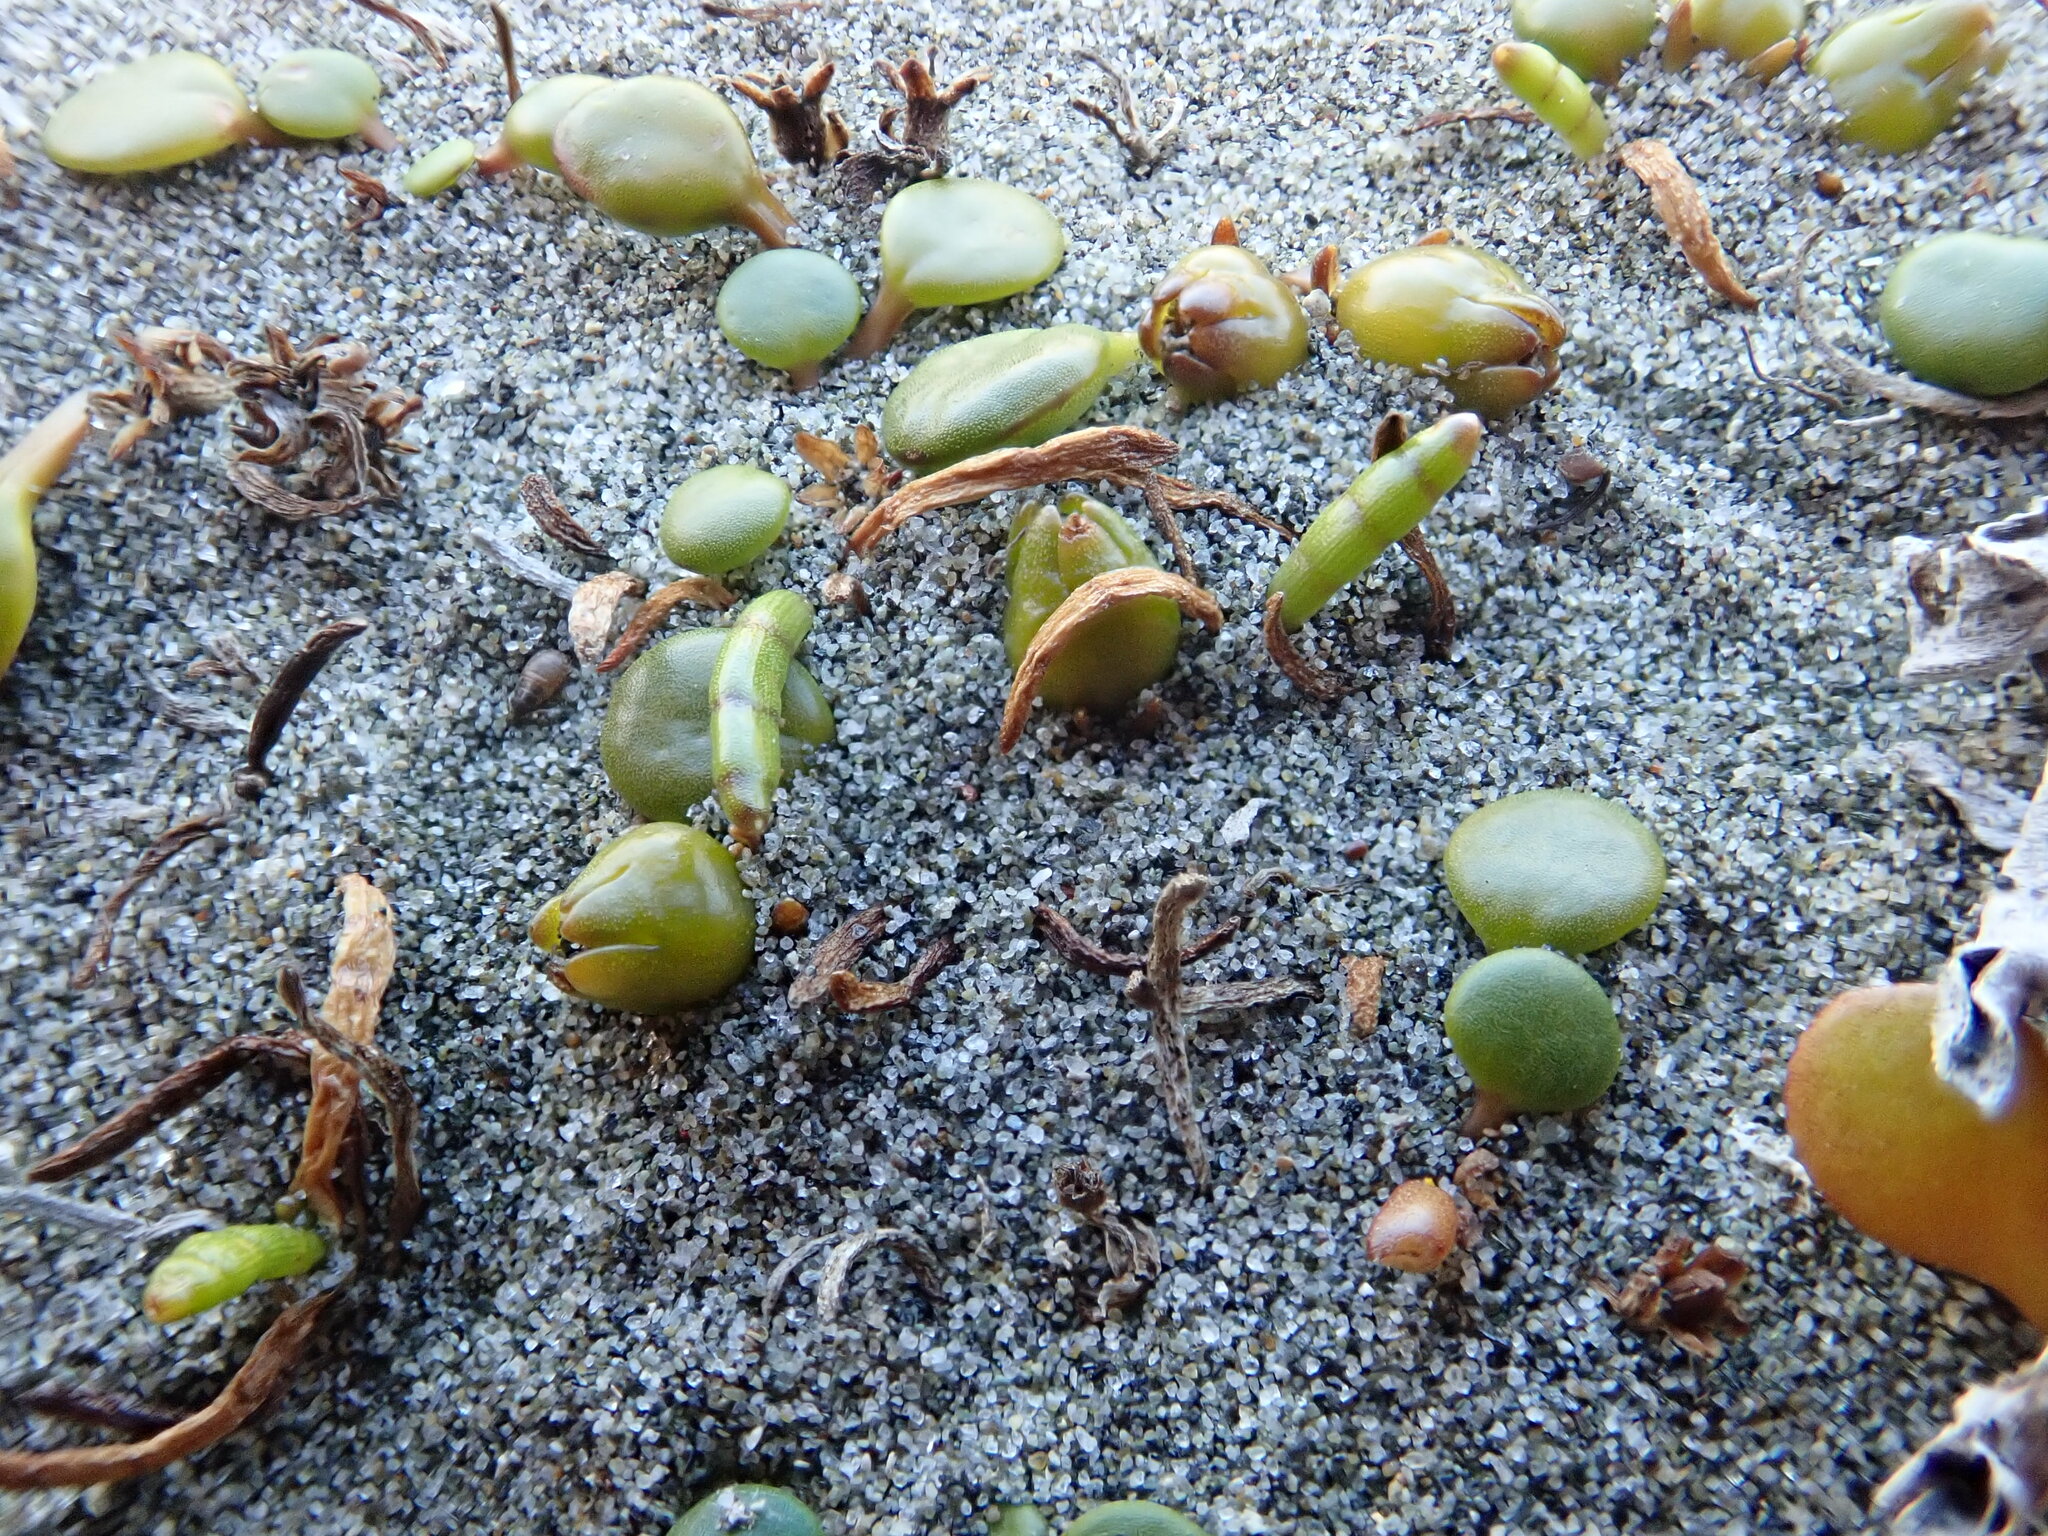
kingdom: Plantae
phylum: Tracheophyta
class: Magnoliopsida
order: Apiales
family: Apiaceae
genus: Lilaeopsis
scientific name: Lilaeopsis novae-zelandiae
